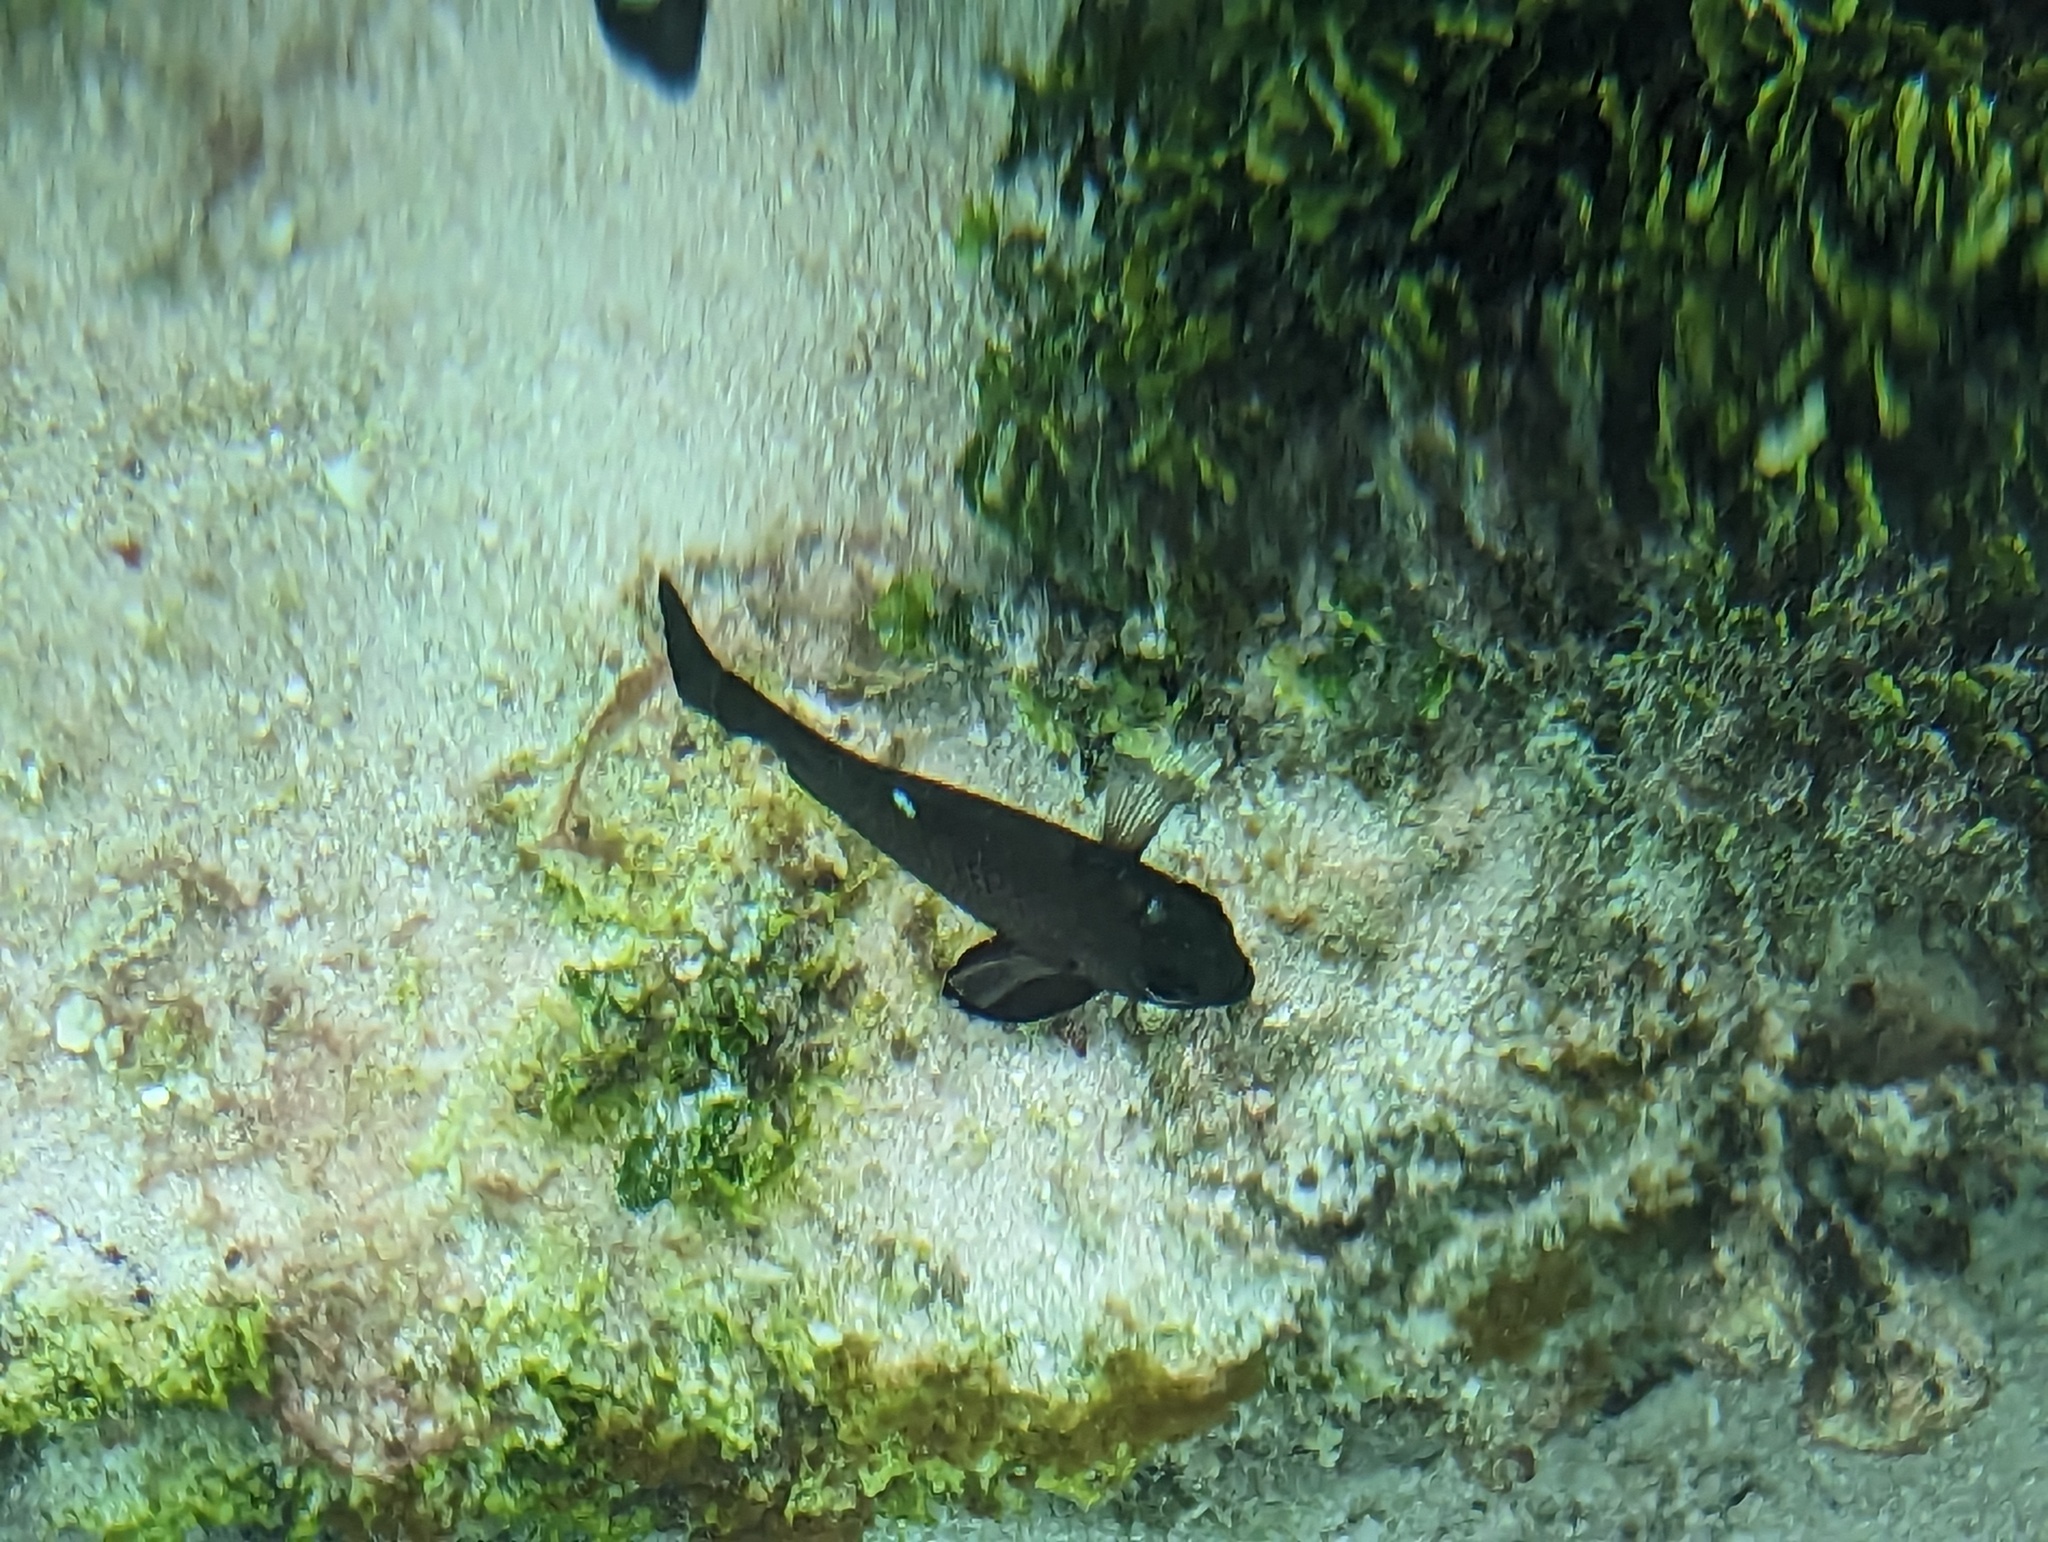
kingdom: Animalia
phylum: Chordata
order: Perciformes
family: Pomacentridae
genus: Dascyllus
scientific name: Dascyllus trimaculatus
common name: Threespot dascyllus
